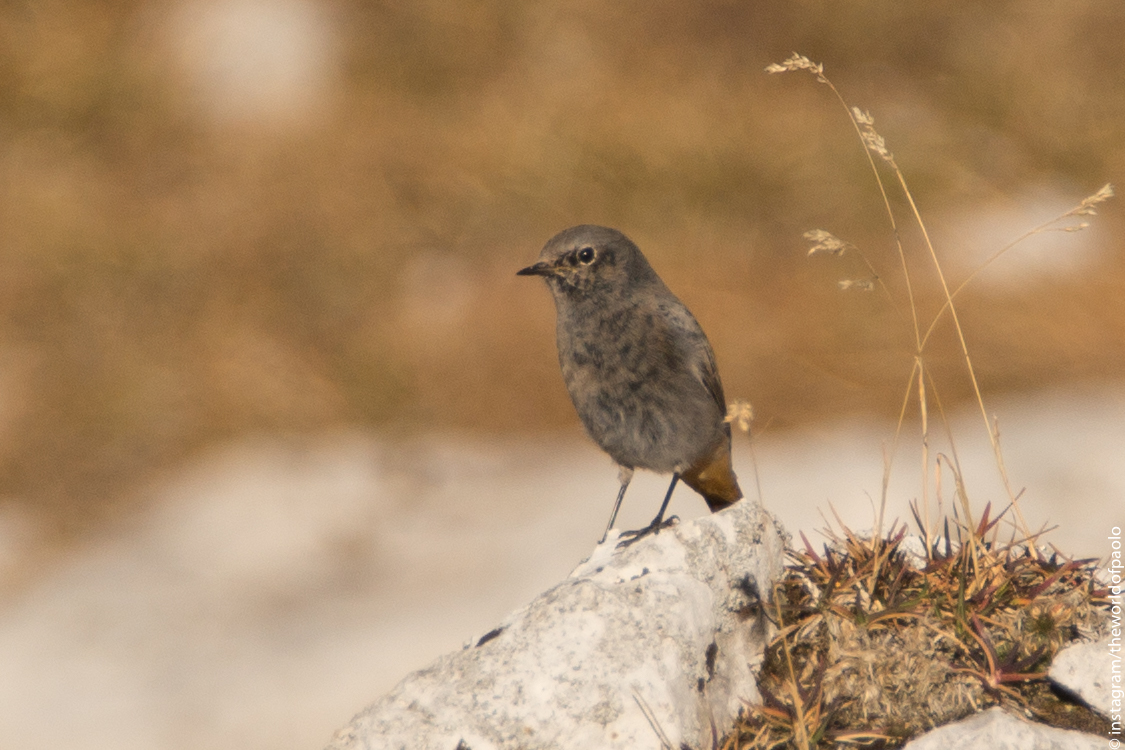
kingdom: Animalia
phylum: Chordata
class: Aves
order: Passeriformes
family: Muscicapidae
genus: Phoenicurus
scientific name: Phoenicurus ochruros
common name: Black redstart
